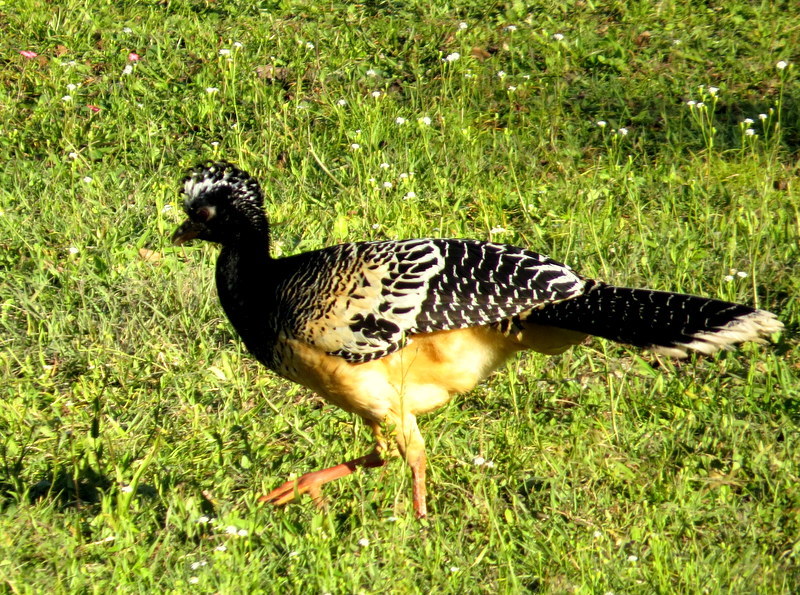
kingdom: Animalia
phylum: Chordata
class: Aves
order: Galliformes
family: Cracidae
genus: Crax
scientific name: Crax fasciolata
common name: Bare-faced curassow
